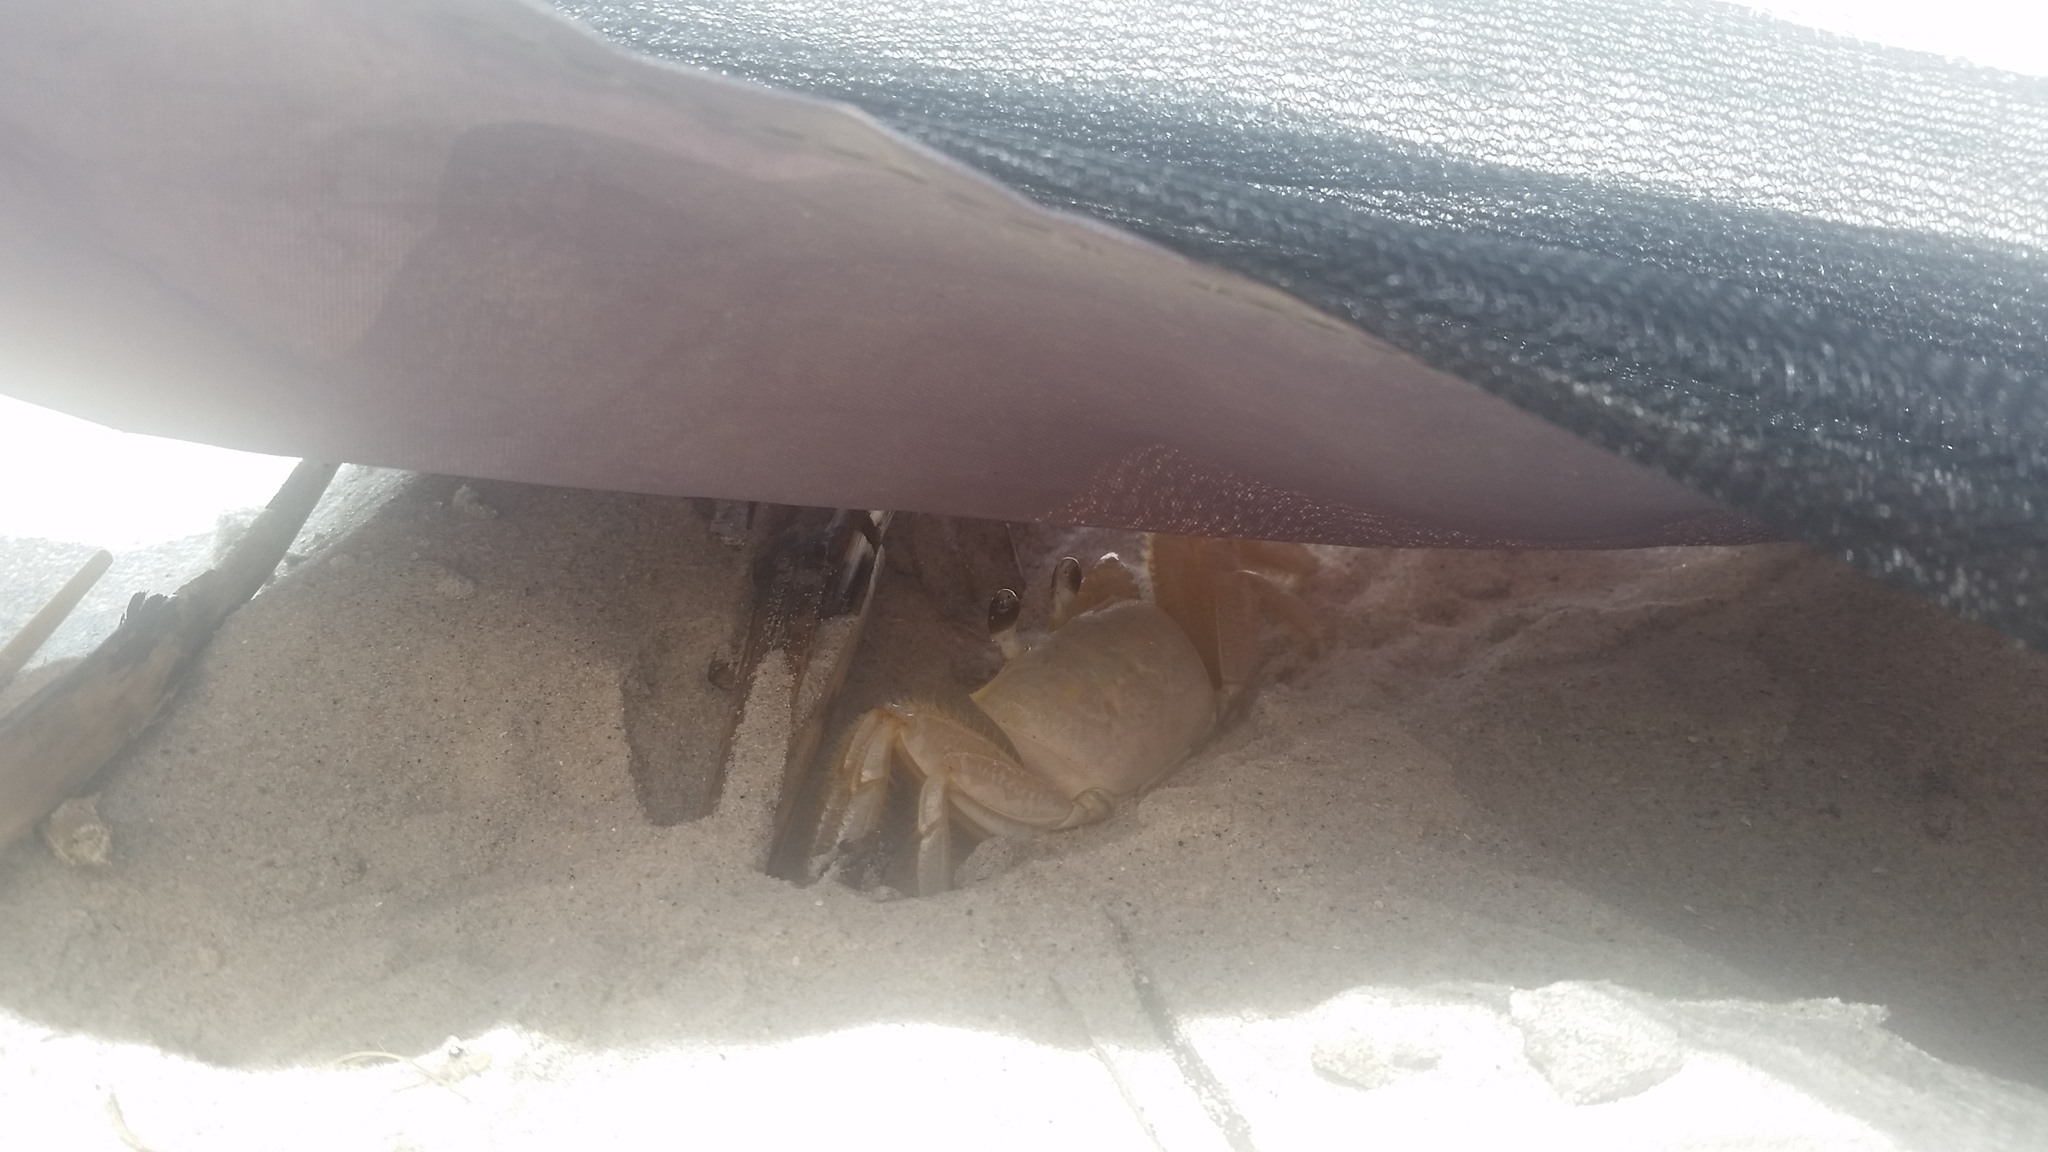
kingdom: Animalia
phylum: Arthropoda
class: Malacostraca
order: Decapoda
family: Ocypodidae
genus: Ocypode
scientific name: Ocypode quadrata
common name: Ghost crab
